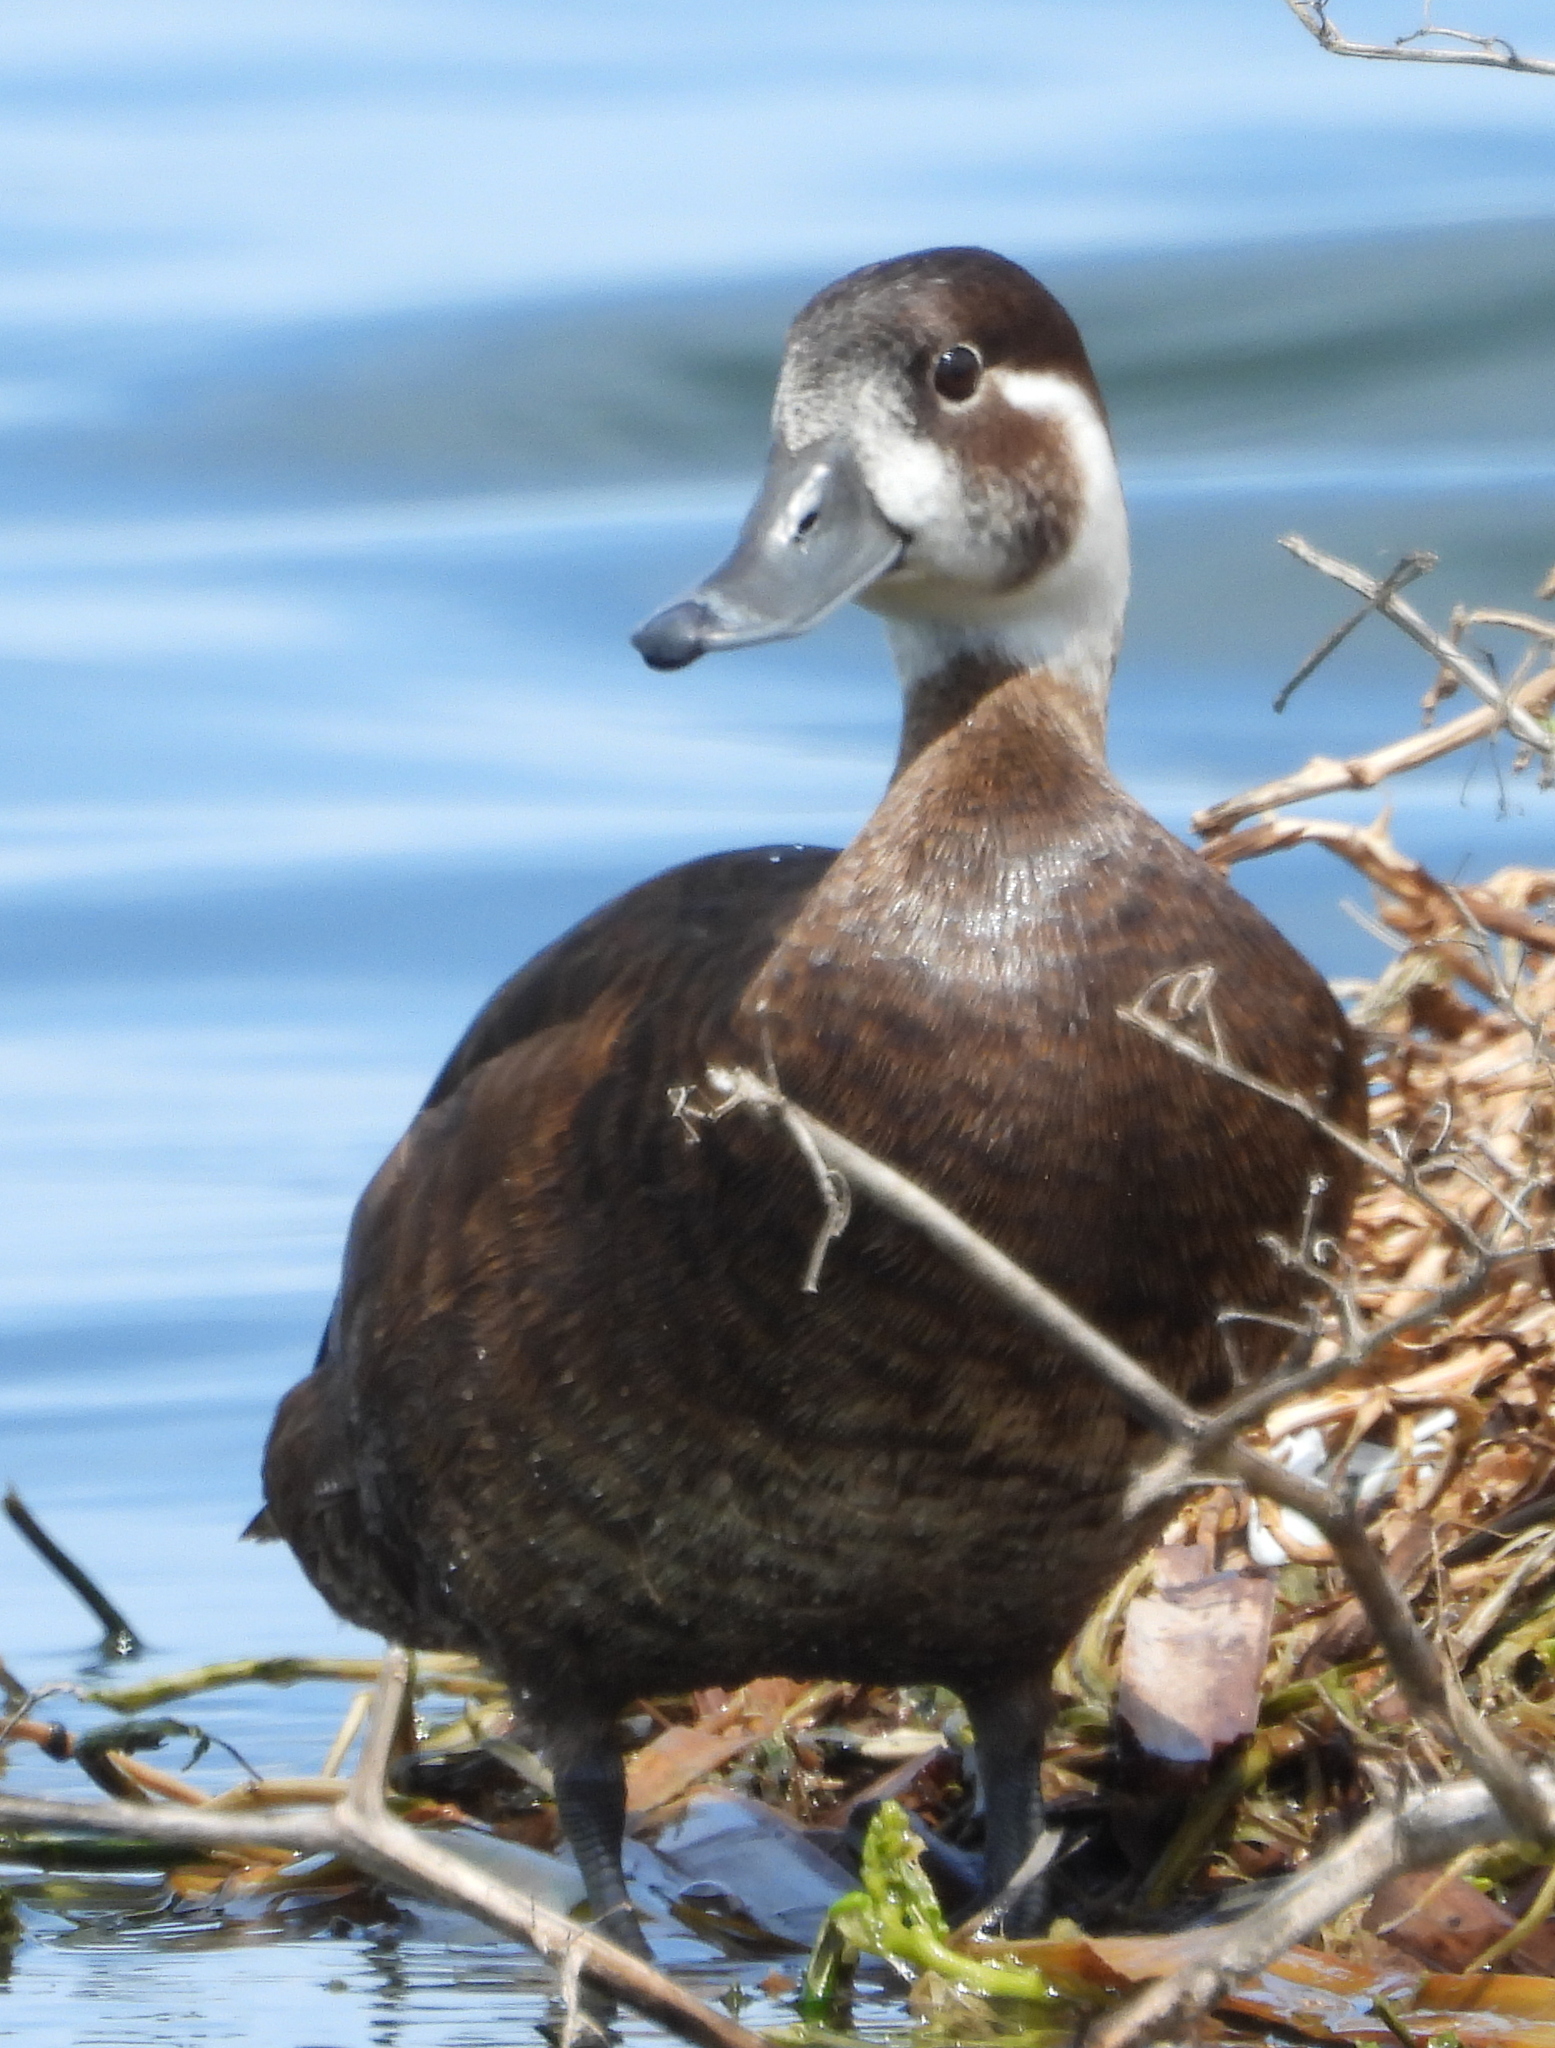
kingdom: Animalia
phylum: Chordata
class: Aves
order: Anseriformes
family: Anatidae
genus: Netta
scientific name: Netta erythrophthalma
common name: Southern pochard
